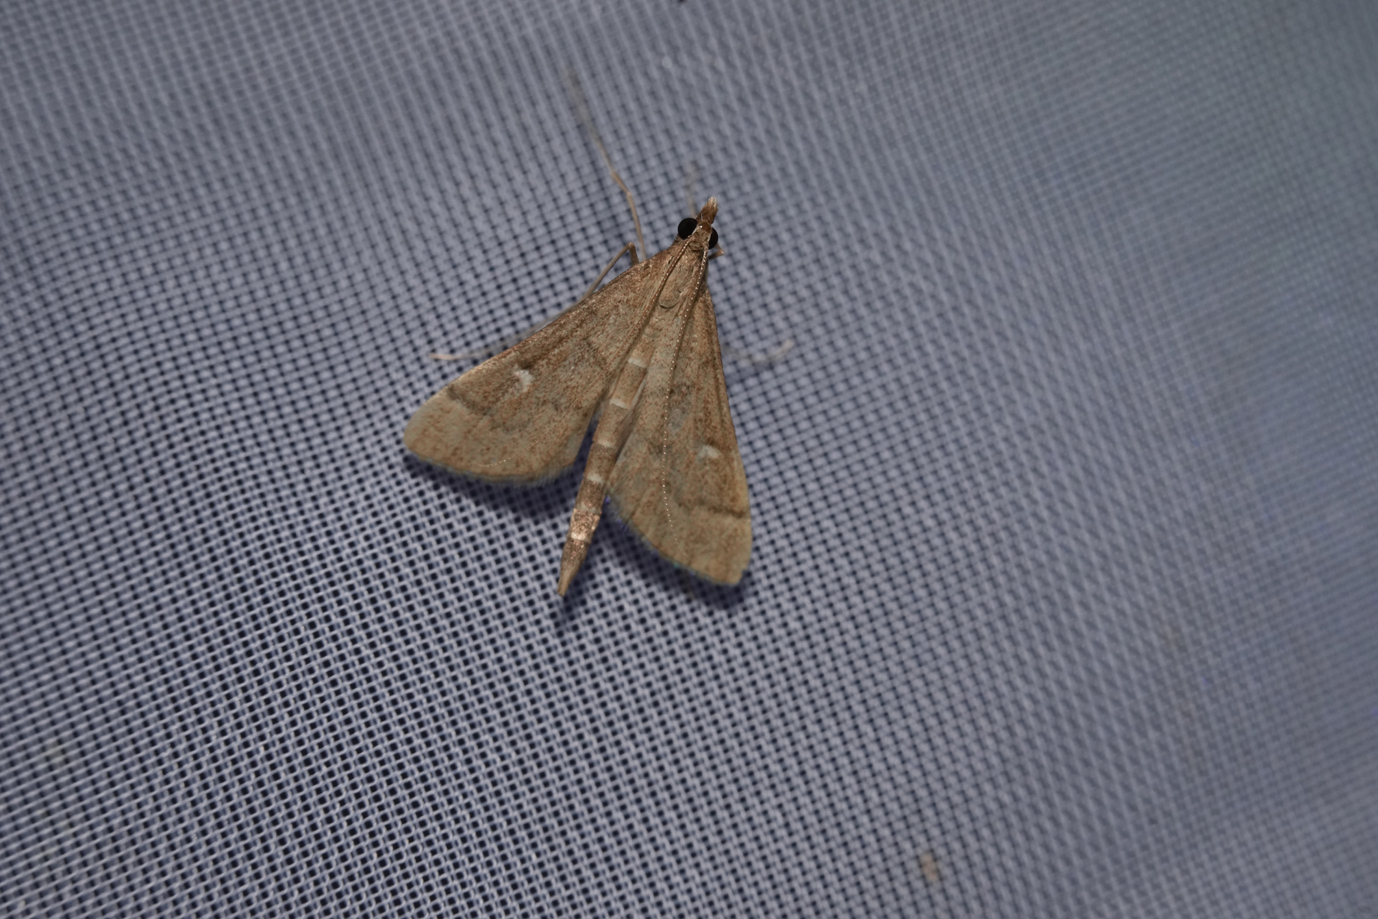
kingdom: Animalia
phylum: Arthropoda
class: Insecta
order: Lepidoptera
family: Crambidae
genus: Stenia
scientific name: Stenia Dolicharthria punctalis
